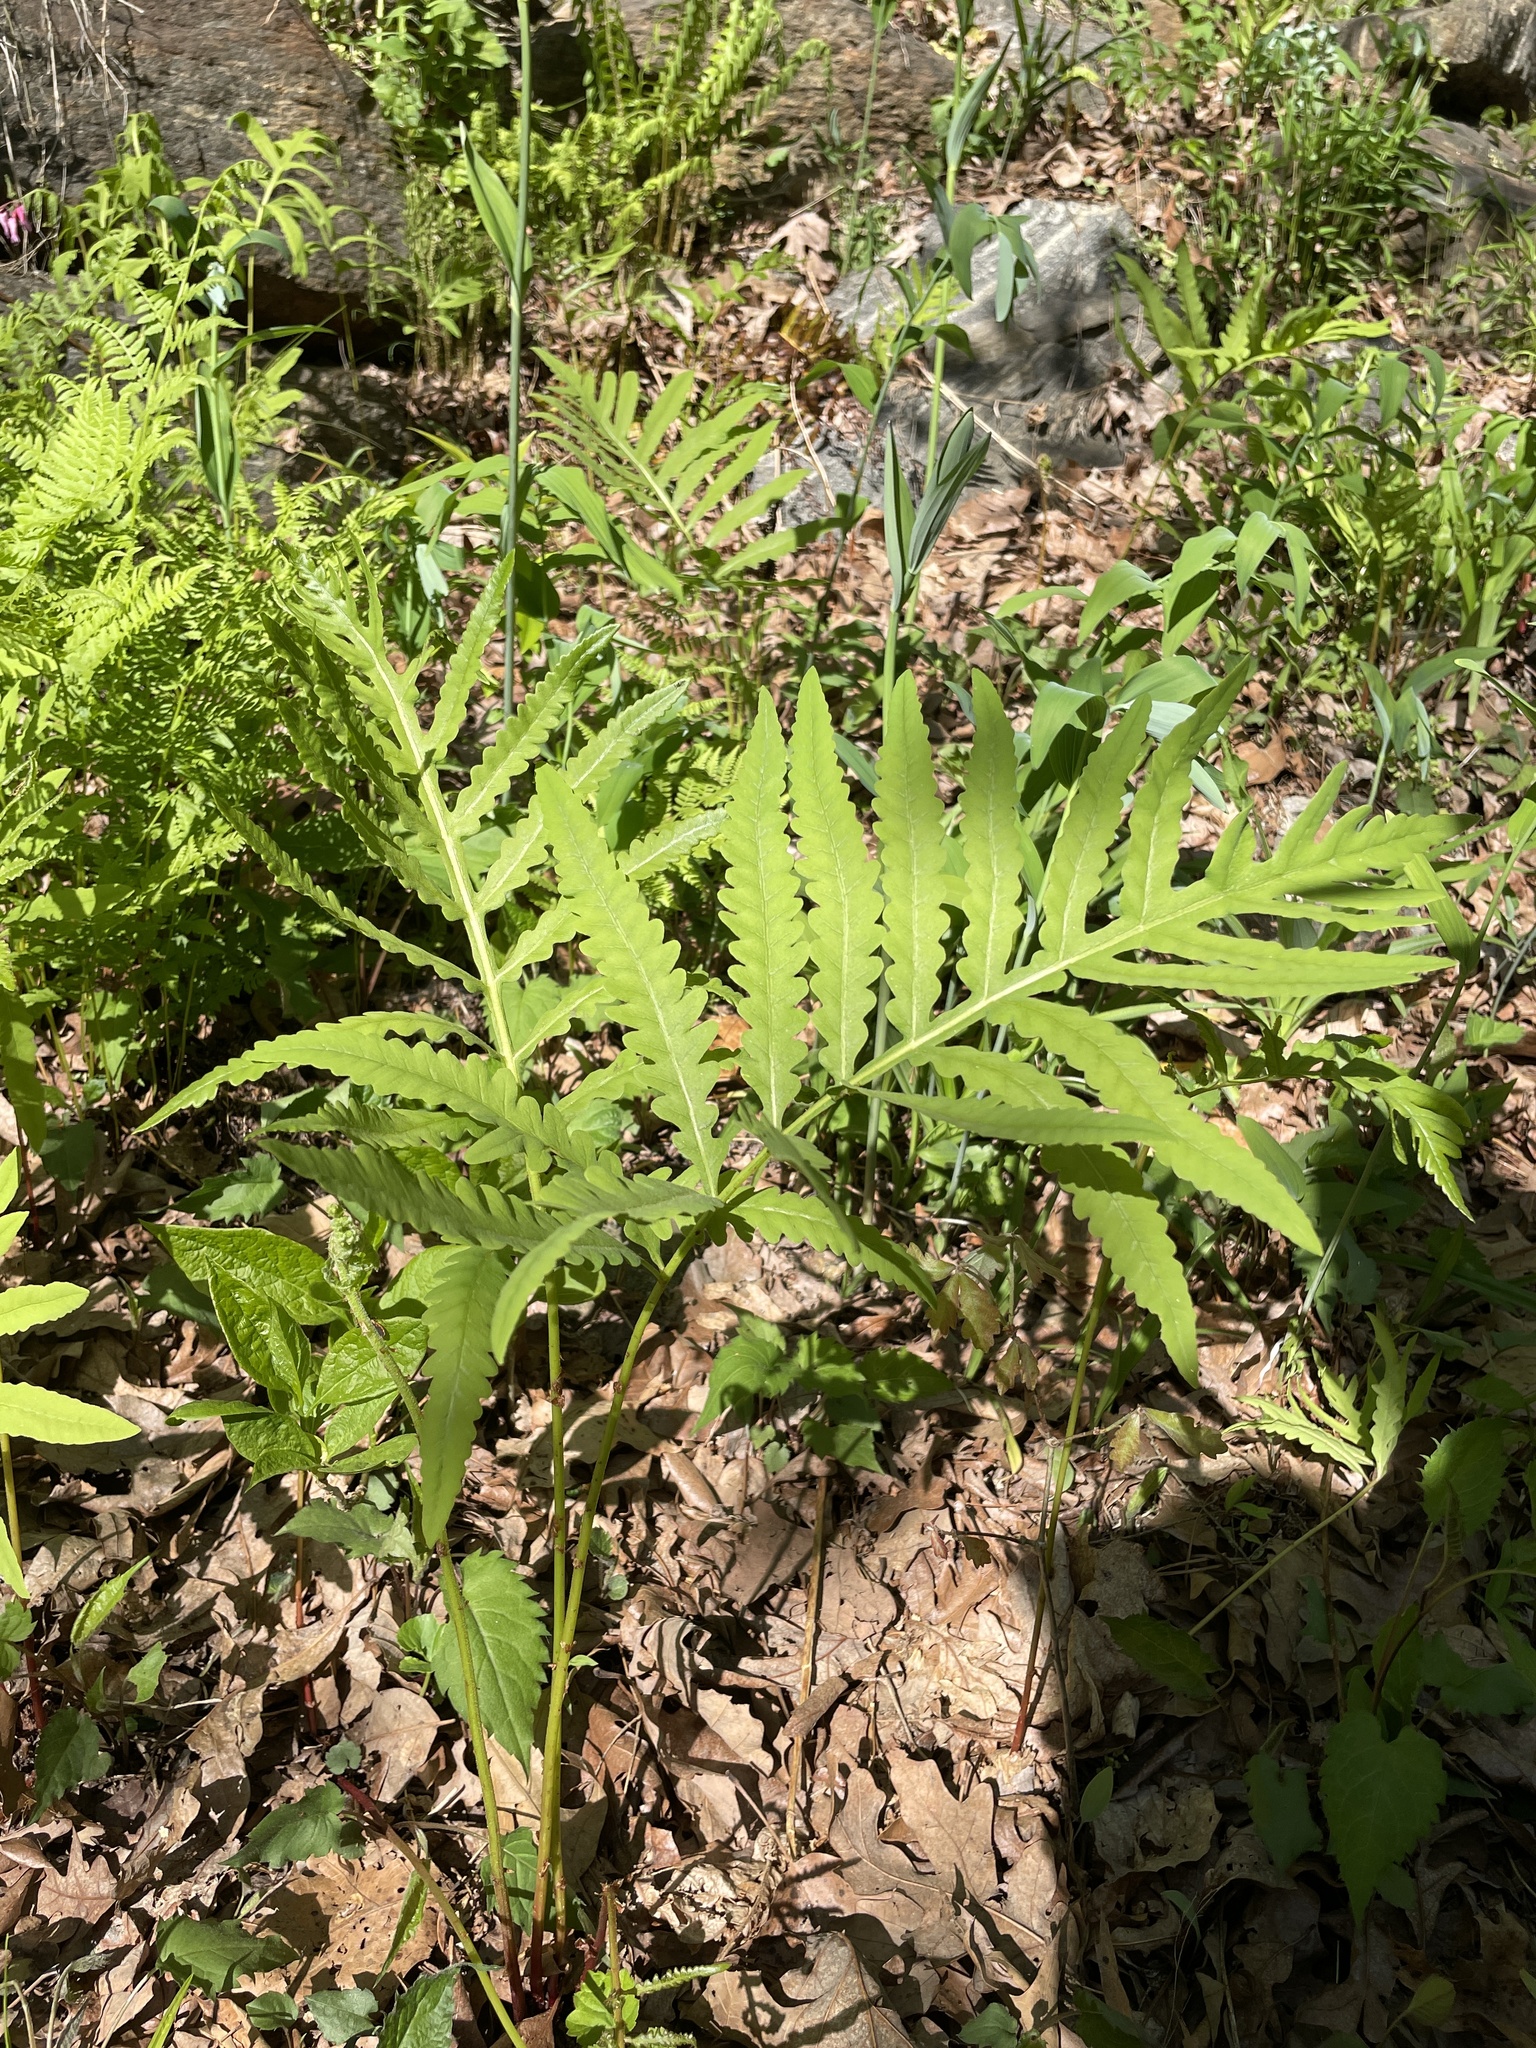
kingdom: Plantae
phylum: Tracheophyta
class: Polypodiopsida
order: Polypodiales
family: Onocleaceae
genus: Onoclea
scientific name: Onoclea sensibilis
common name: Sensitive fern
